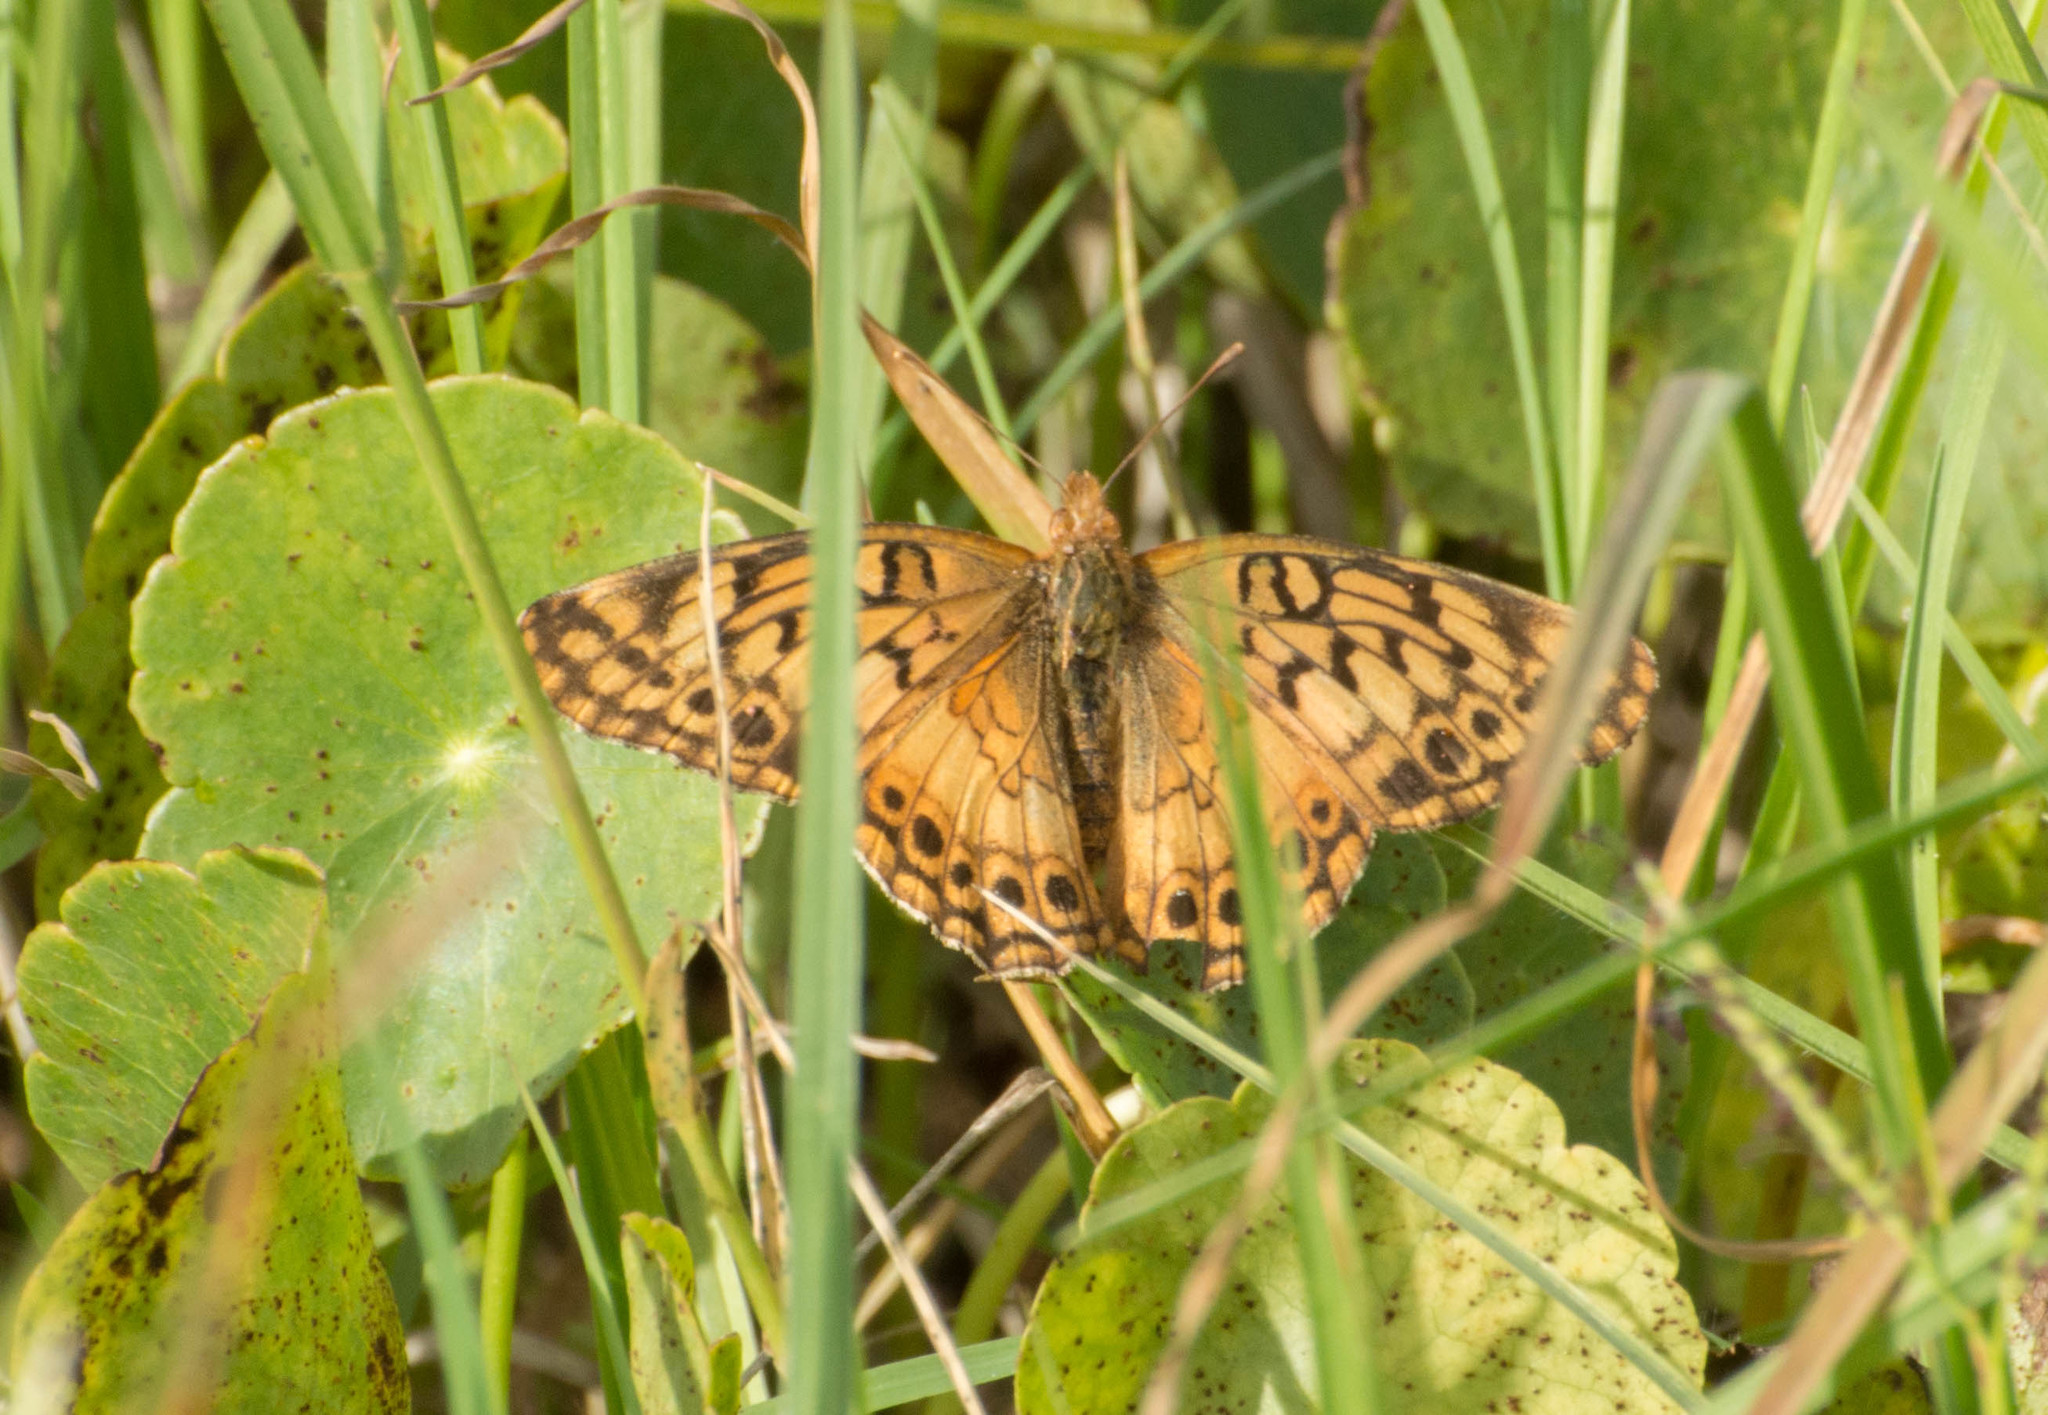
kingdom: Animalia
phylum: Arthropoda
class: Insecta
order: Lepidoptera
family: Nymphalidae
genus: Euptoieta
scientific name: Euptoieta hortensia
